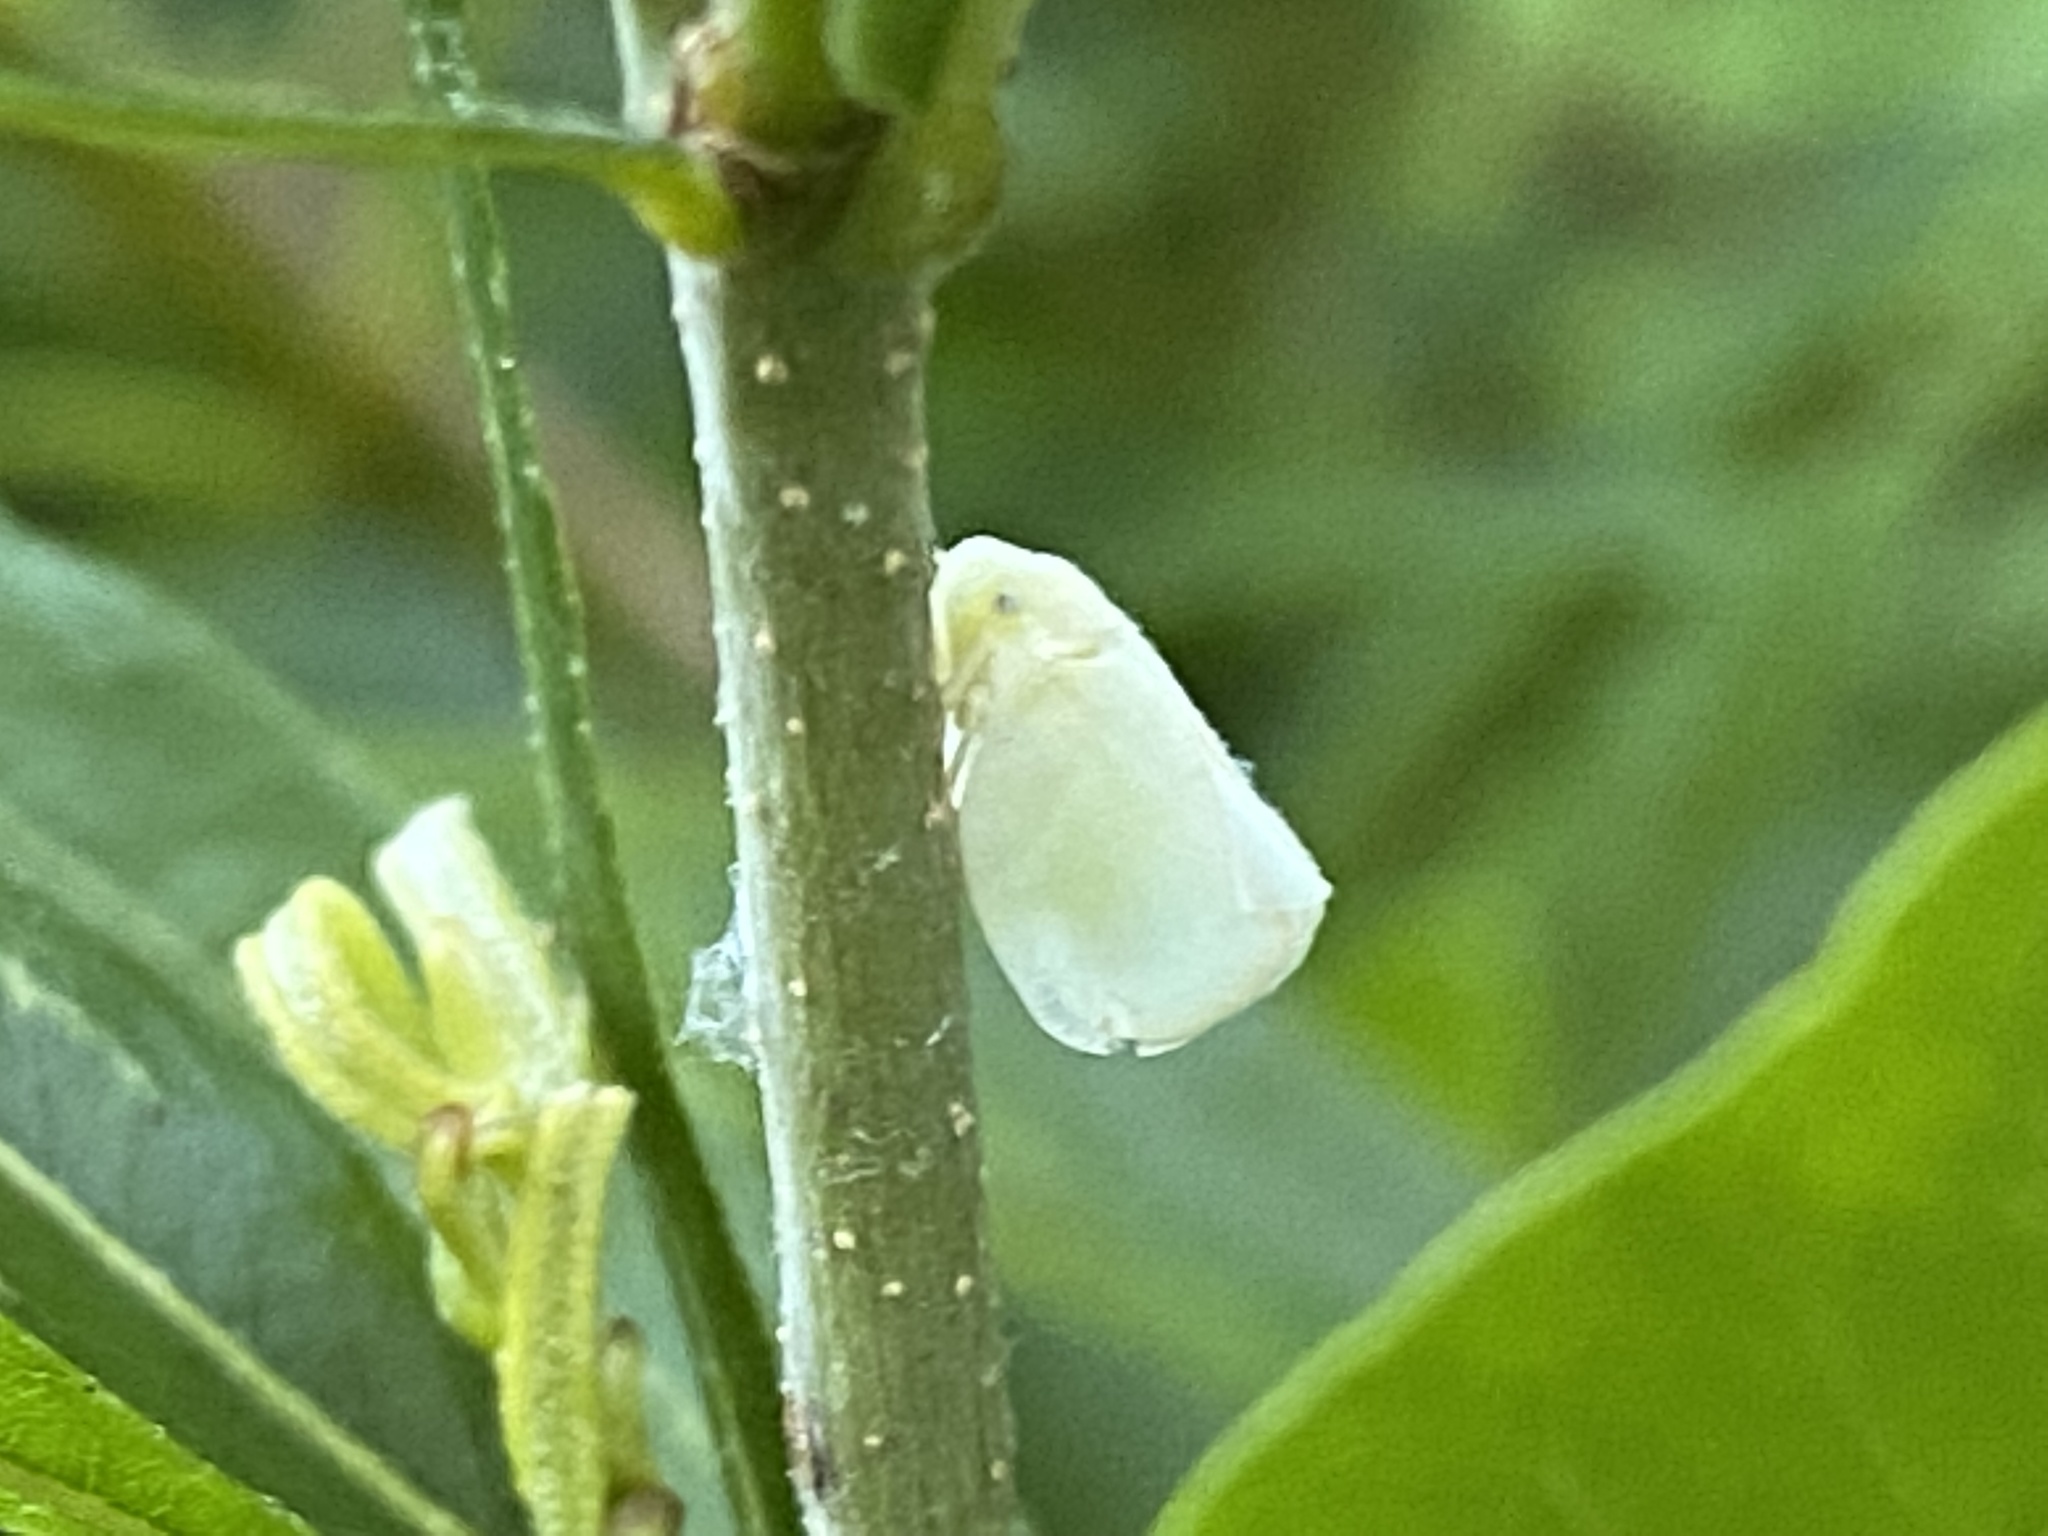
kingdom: Animalia
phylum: Arthropoda
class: Insecta
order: Hemiptera
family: Flatidae
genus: Ormenoides
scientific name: Ormenoides venusta
